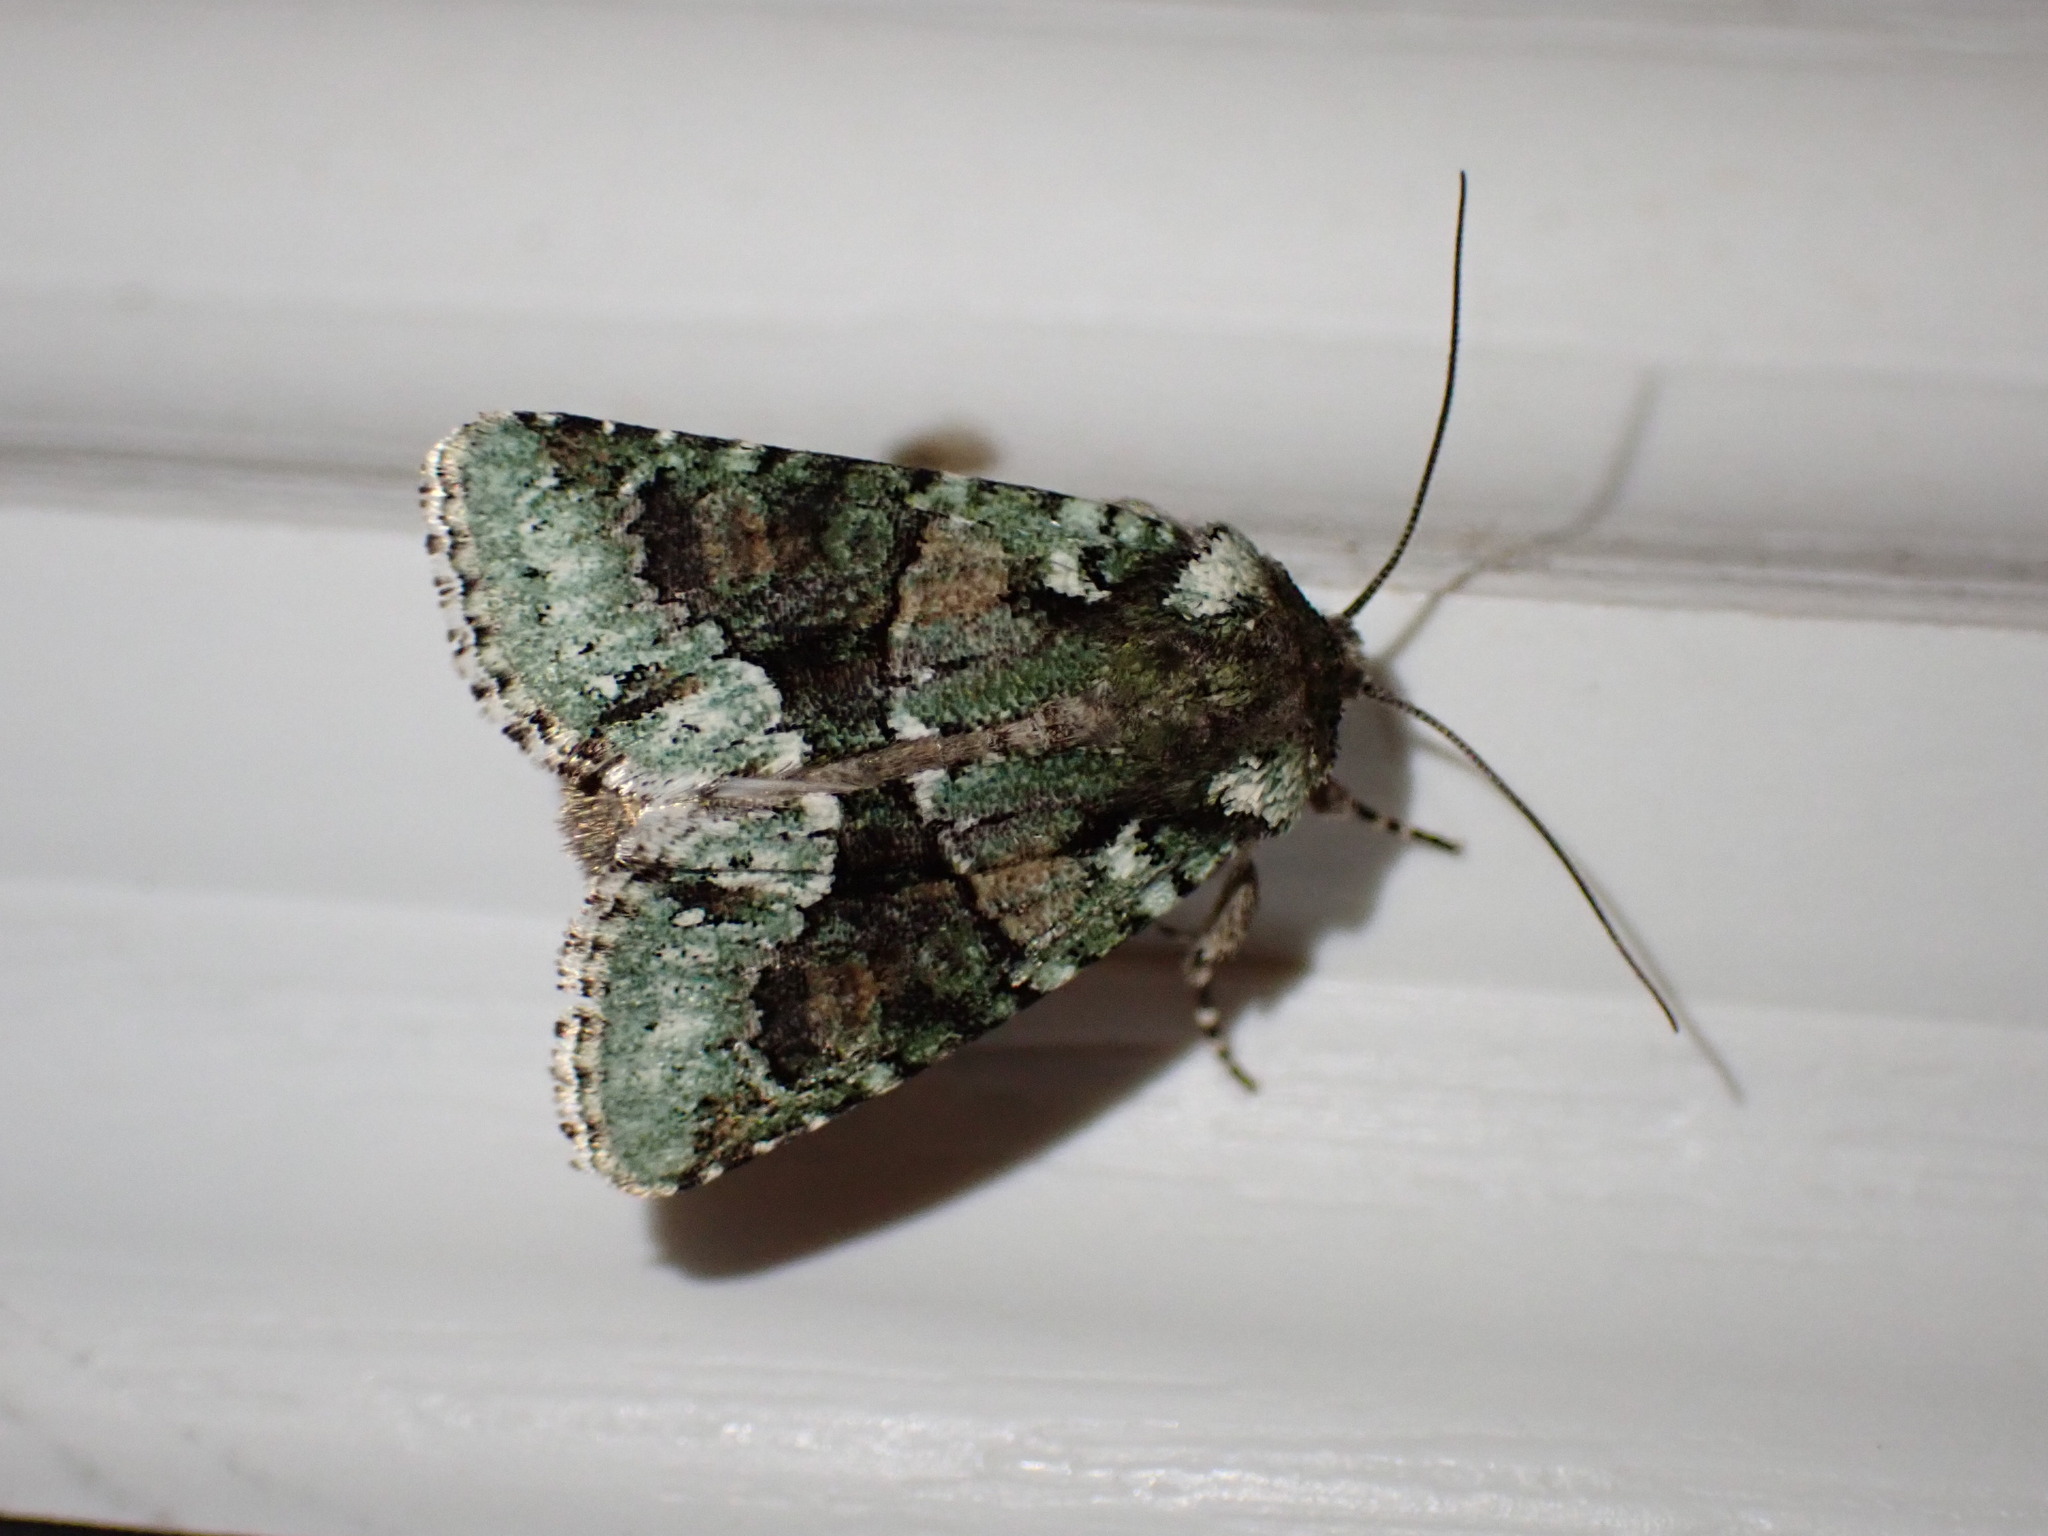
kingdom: Animalia
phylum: Arthropoda
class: Insecta
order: Lepidoptera
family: Noctuidae
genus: Lacinipolia
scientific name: Lacinipolia explicata
